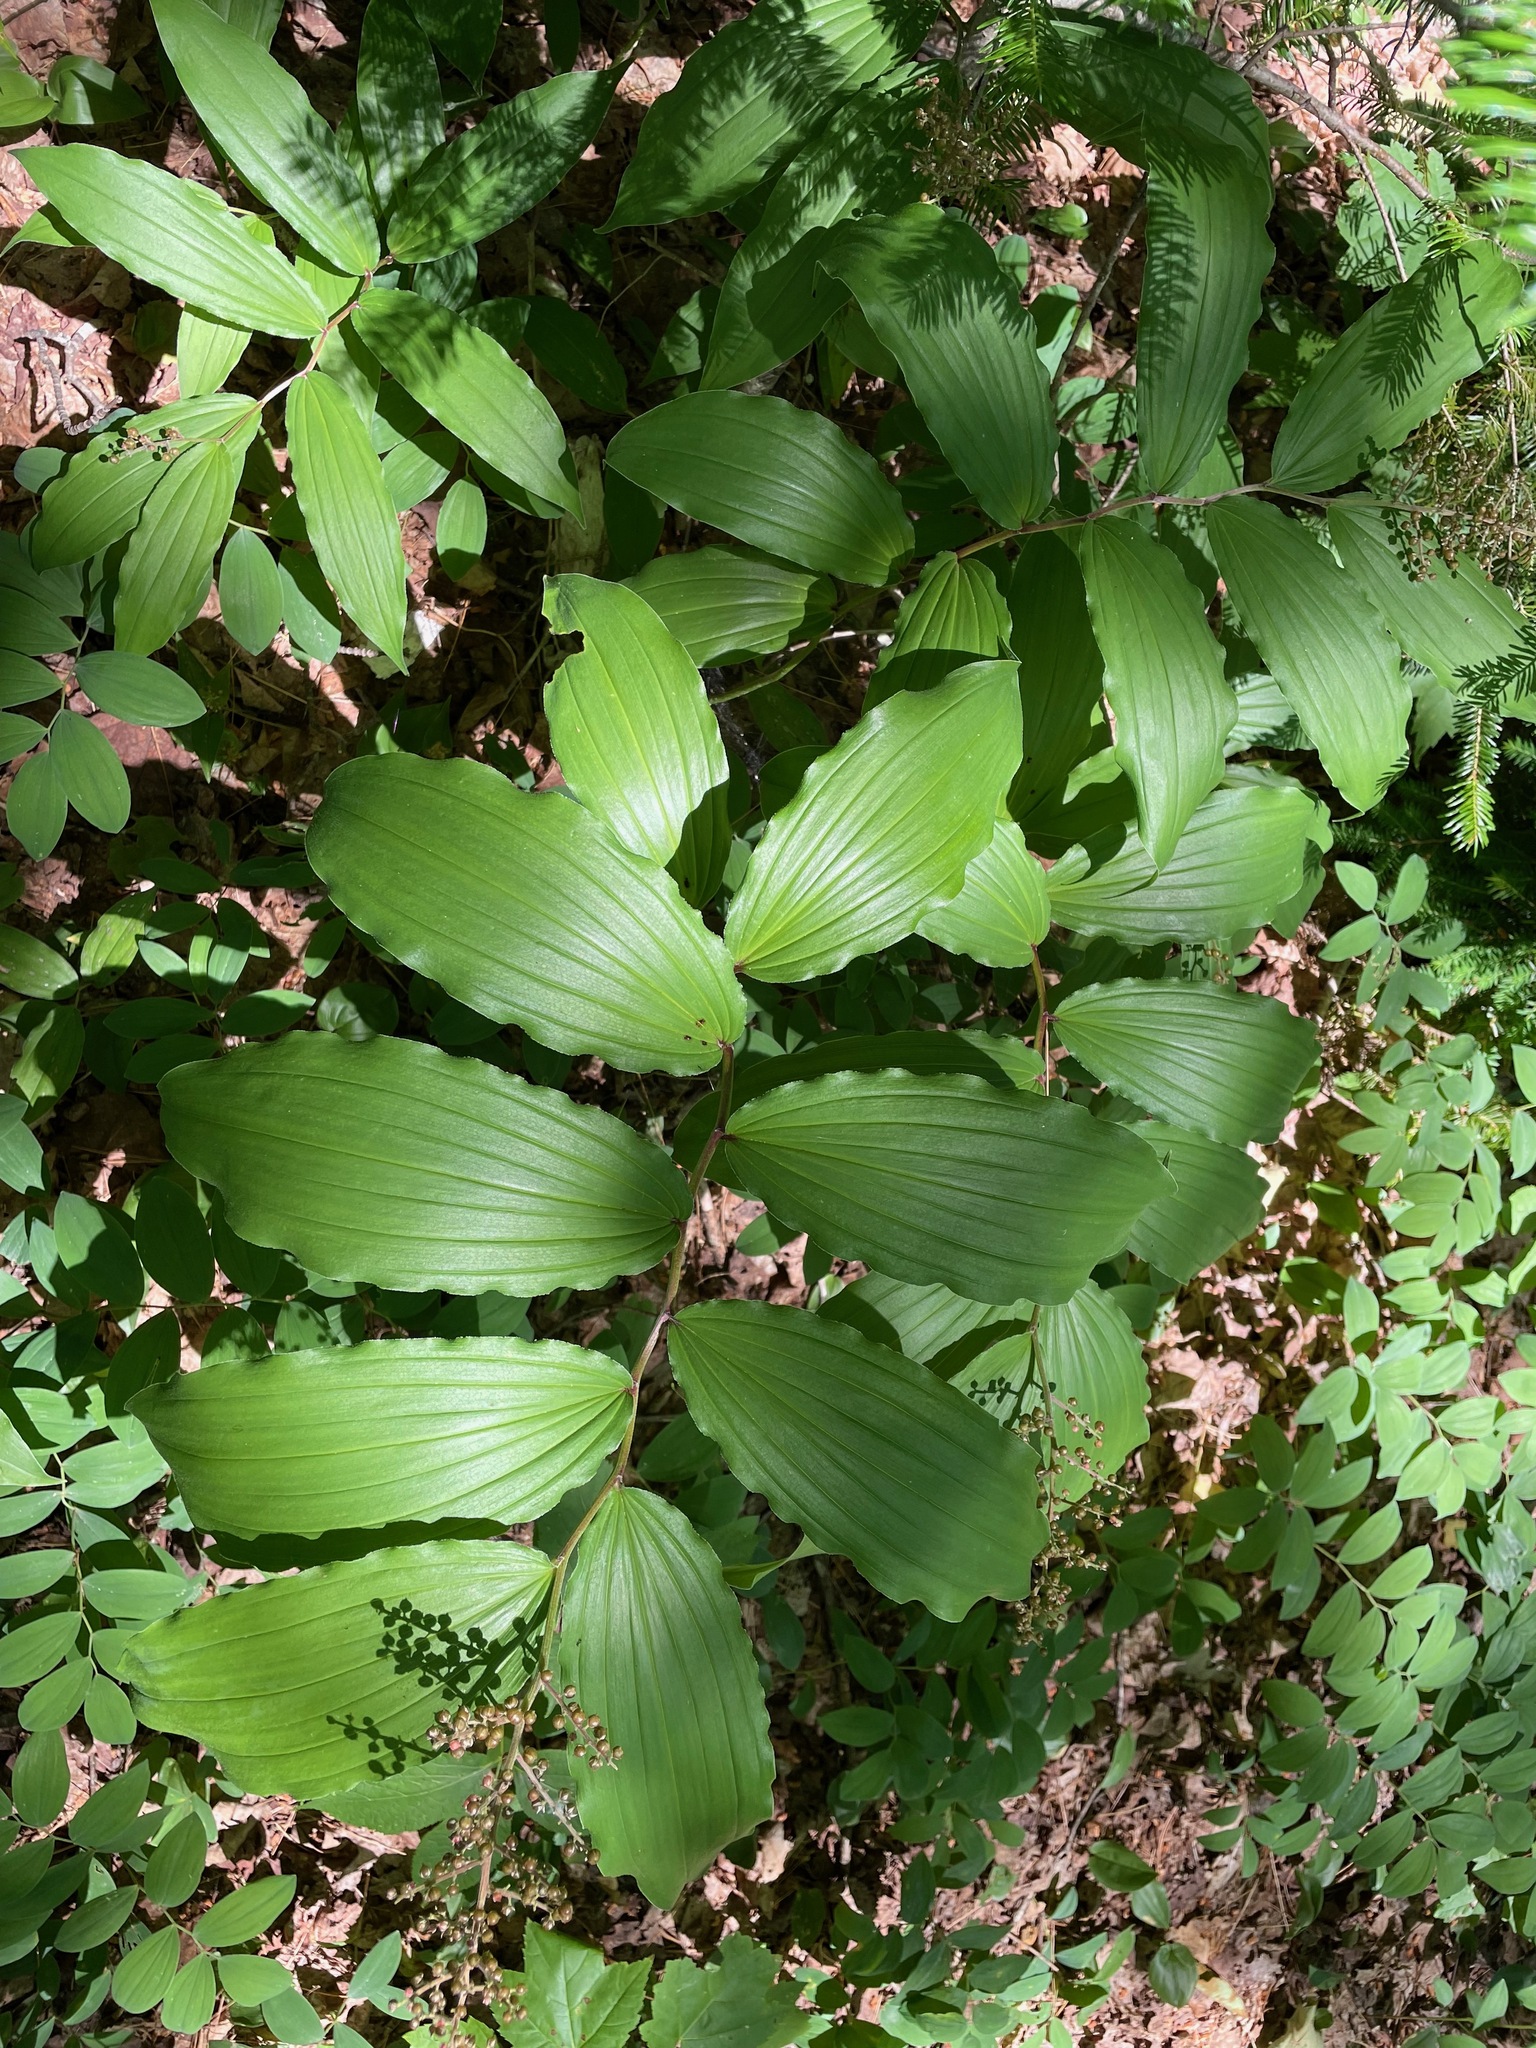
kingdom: Plantae
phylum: Tracheophyta
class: Liliopsida
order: Asparagales
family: Asparagaceae
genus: Maianthemum
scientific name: Maianthemum racemosum
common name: False spikenard
